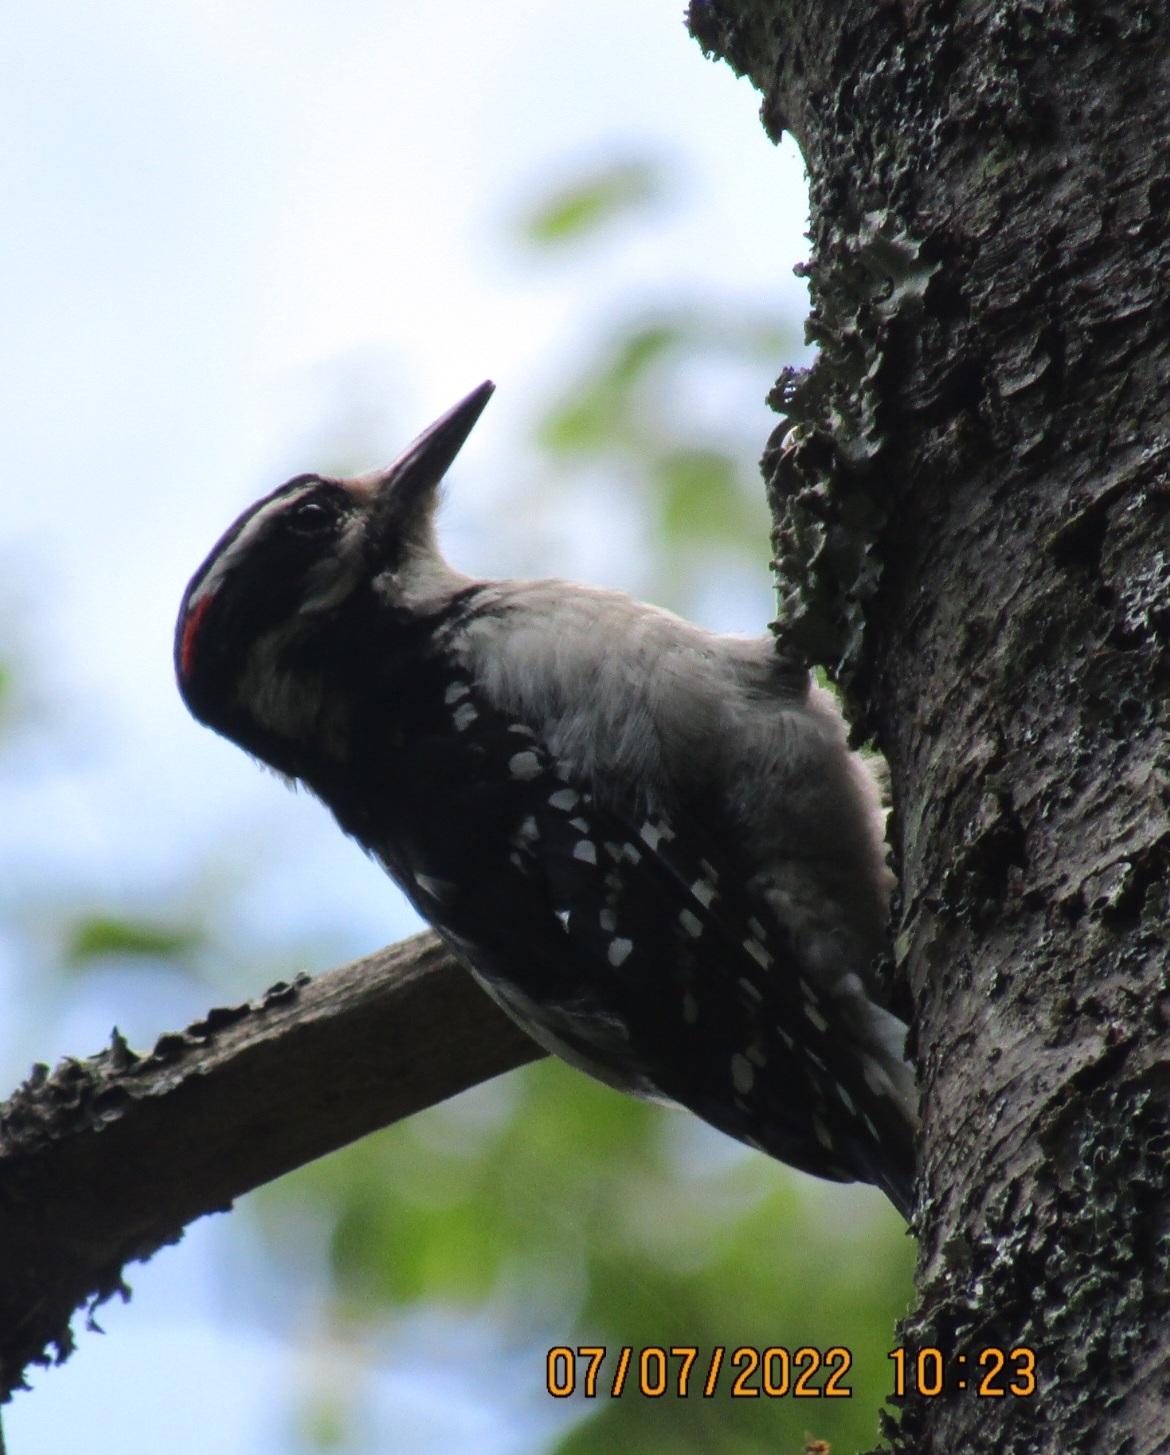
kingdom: Animalia
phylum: Chordata
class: Aves
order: Piciformes
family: Picidae
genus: Leuconotopicus
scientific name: Leuconotopicus villosus
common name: Hairy woodpecker
